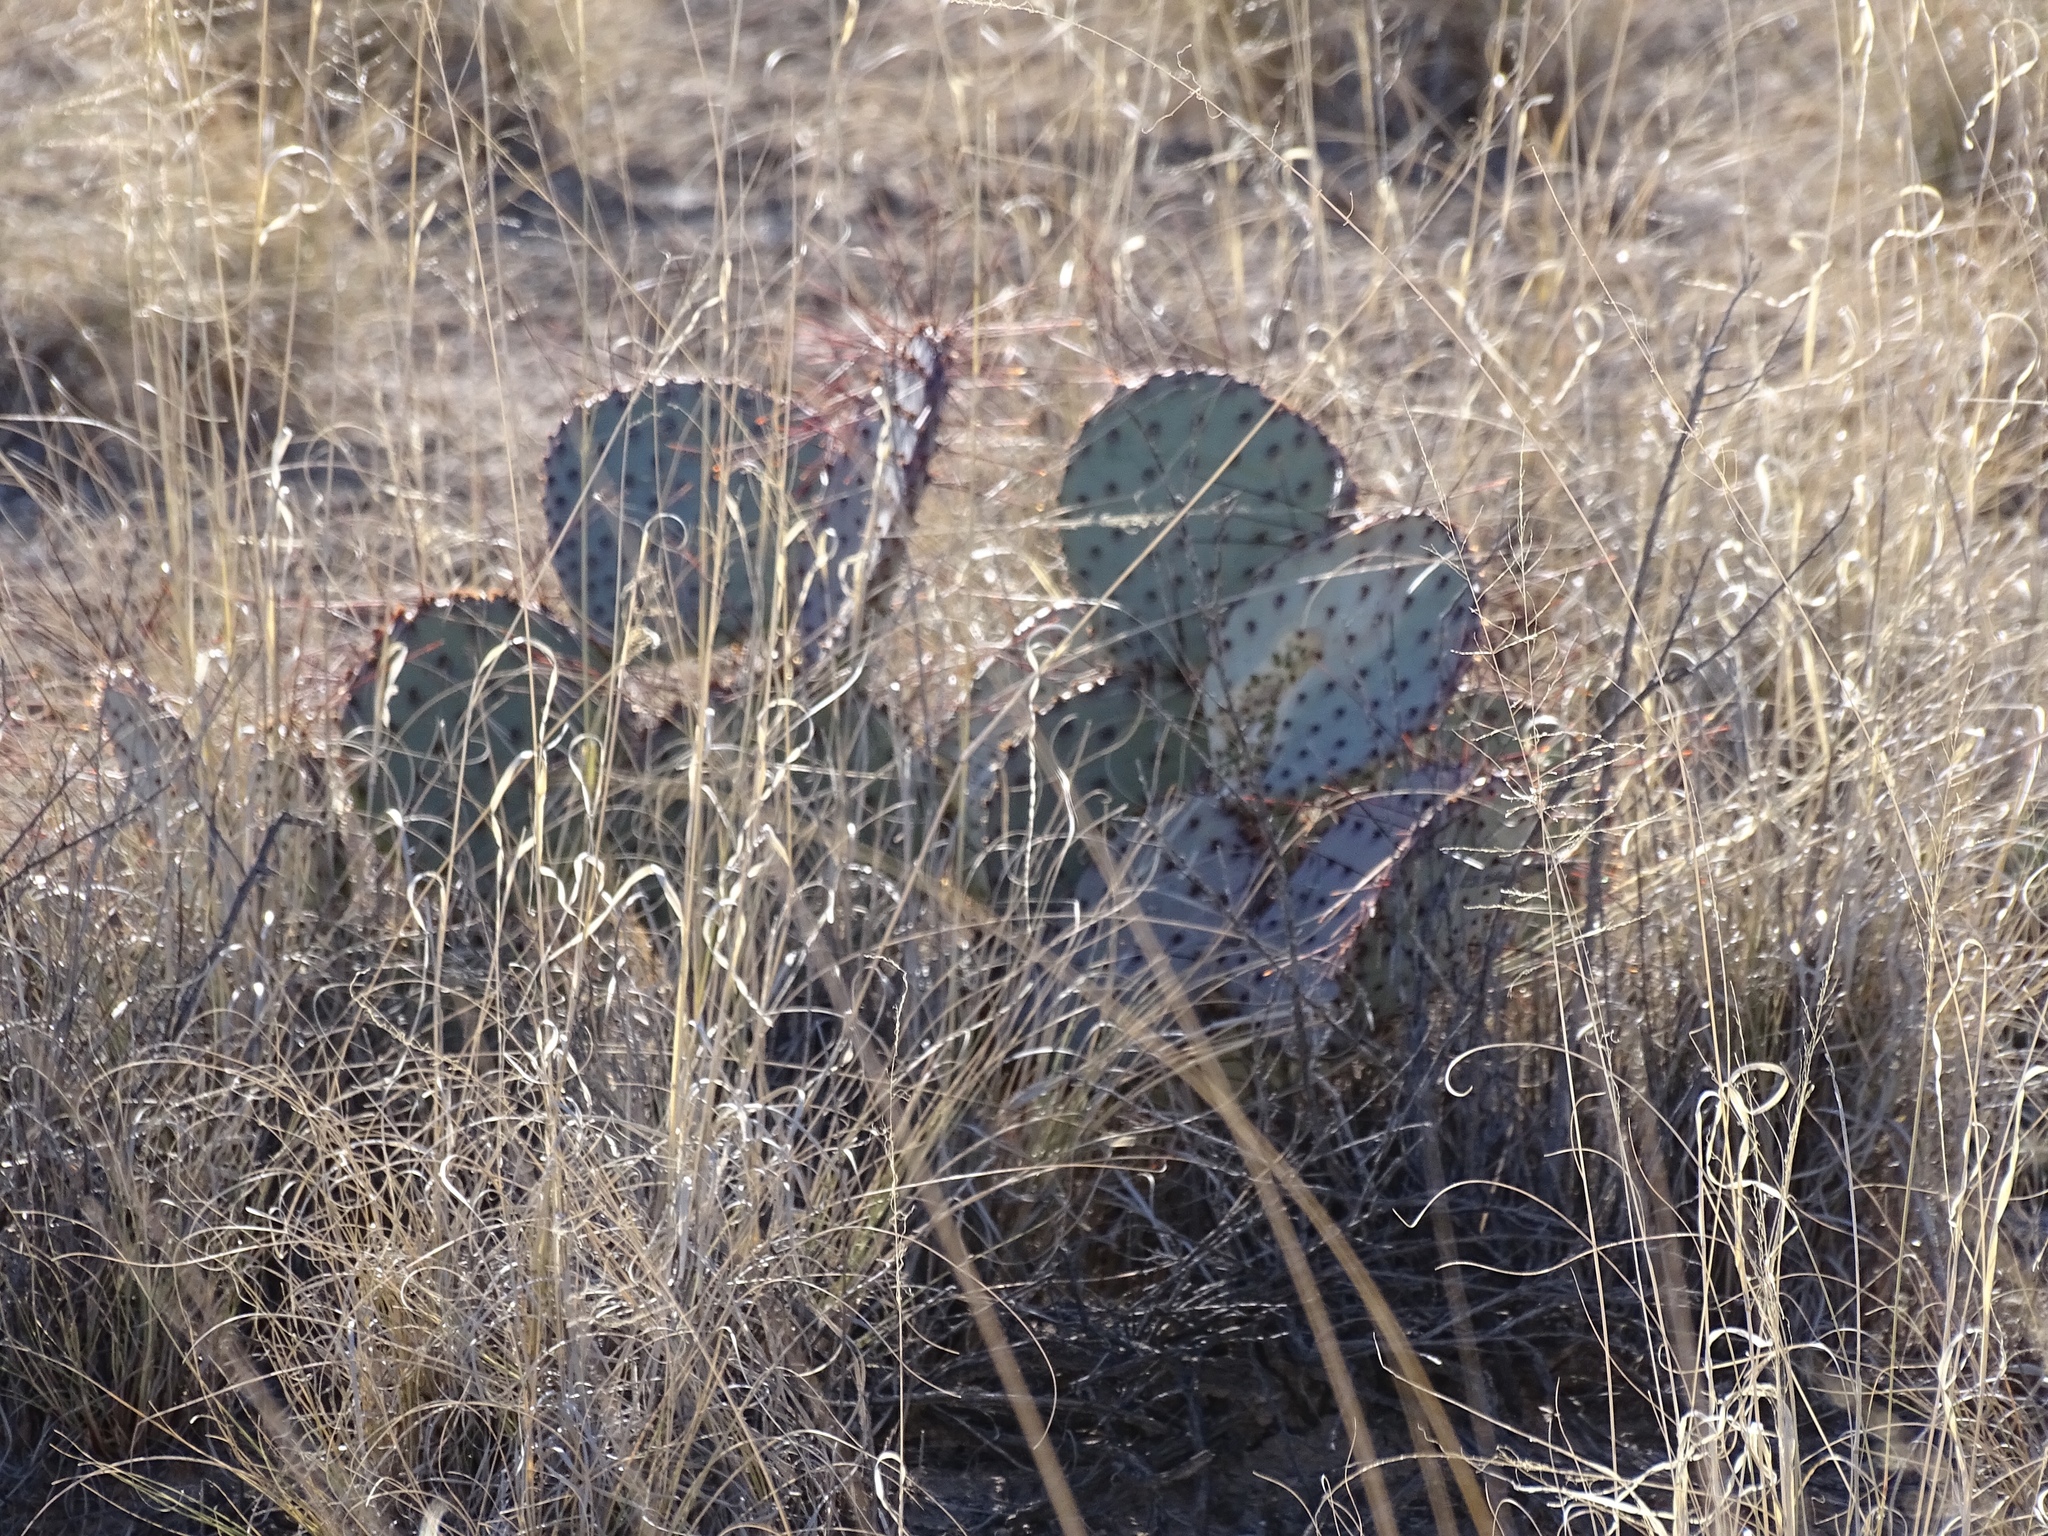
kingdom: Plantae
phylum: Tracheophyta
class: Magnoliopsida
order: Caryophyllales
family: Cactaceae
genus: Opuntia
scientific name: Opuntia macrocentra
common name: Purple prickly-pear
